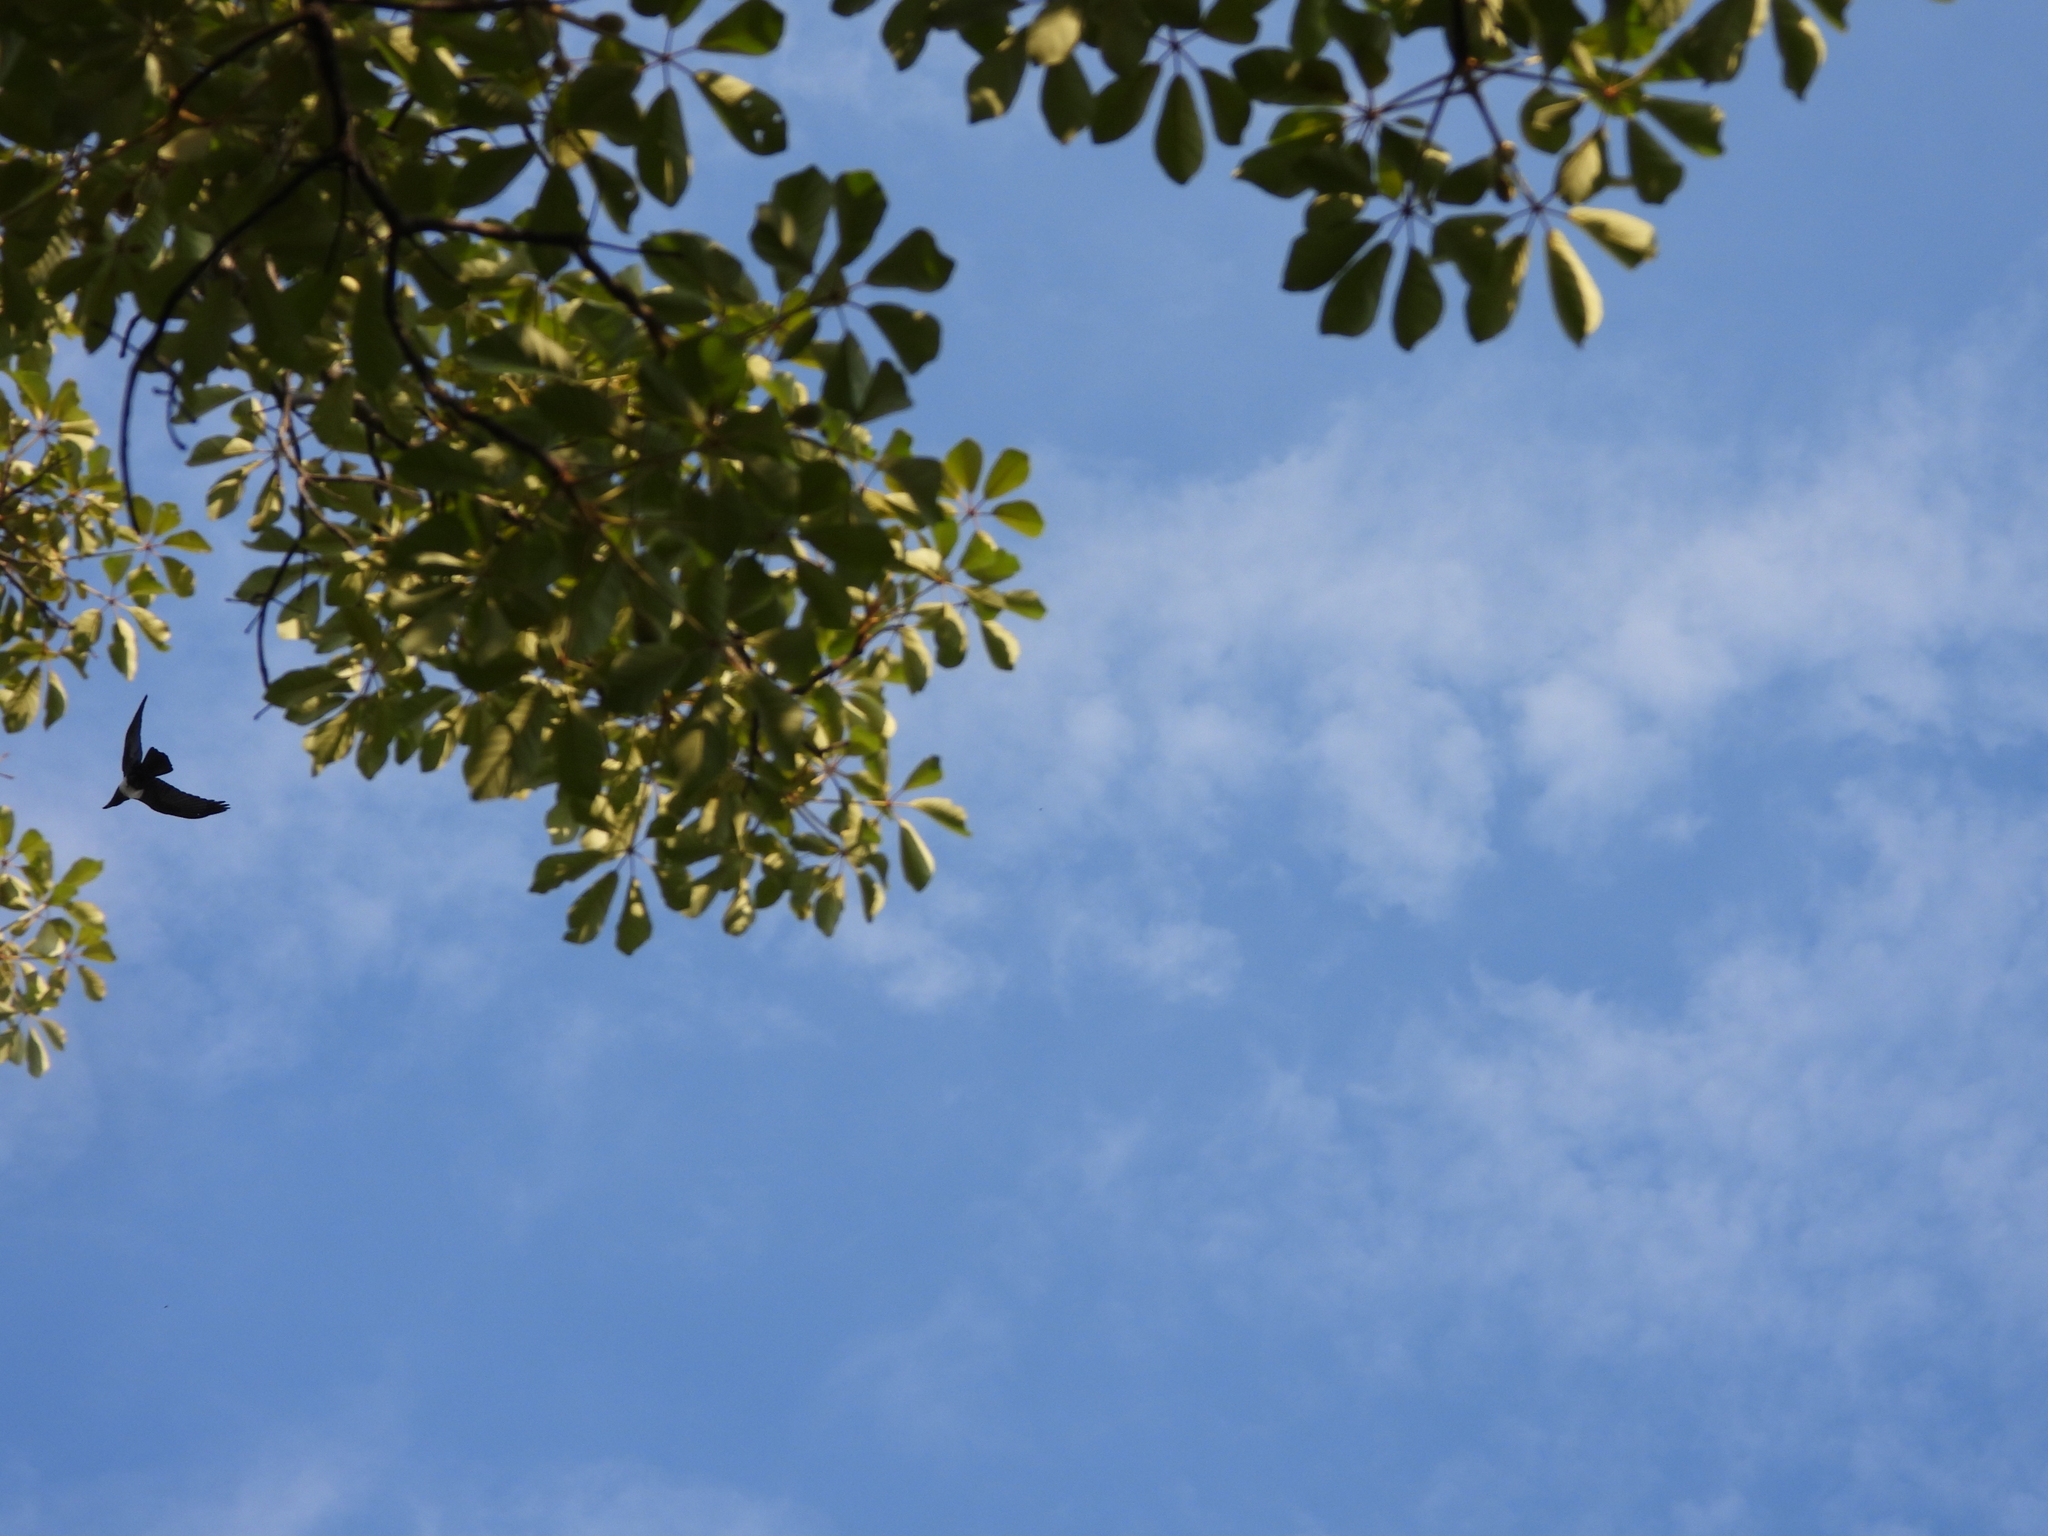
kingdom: Animalia
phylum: Chordata
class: Aves
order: Passeriformes
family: Corvidae
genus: Corvus
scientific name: Corvus albus
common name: Pied crow
